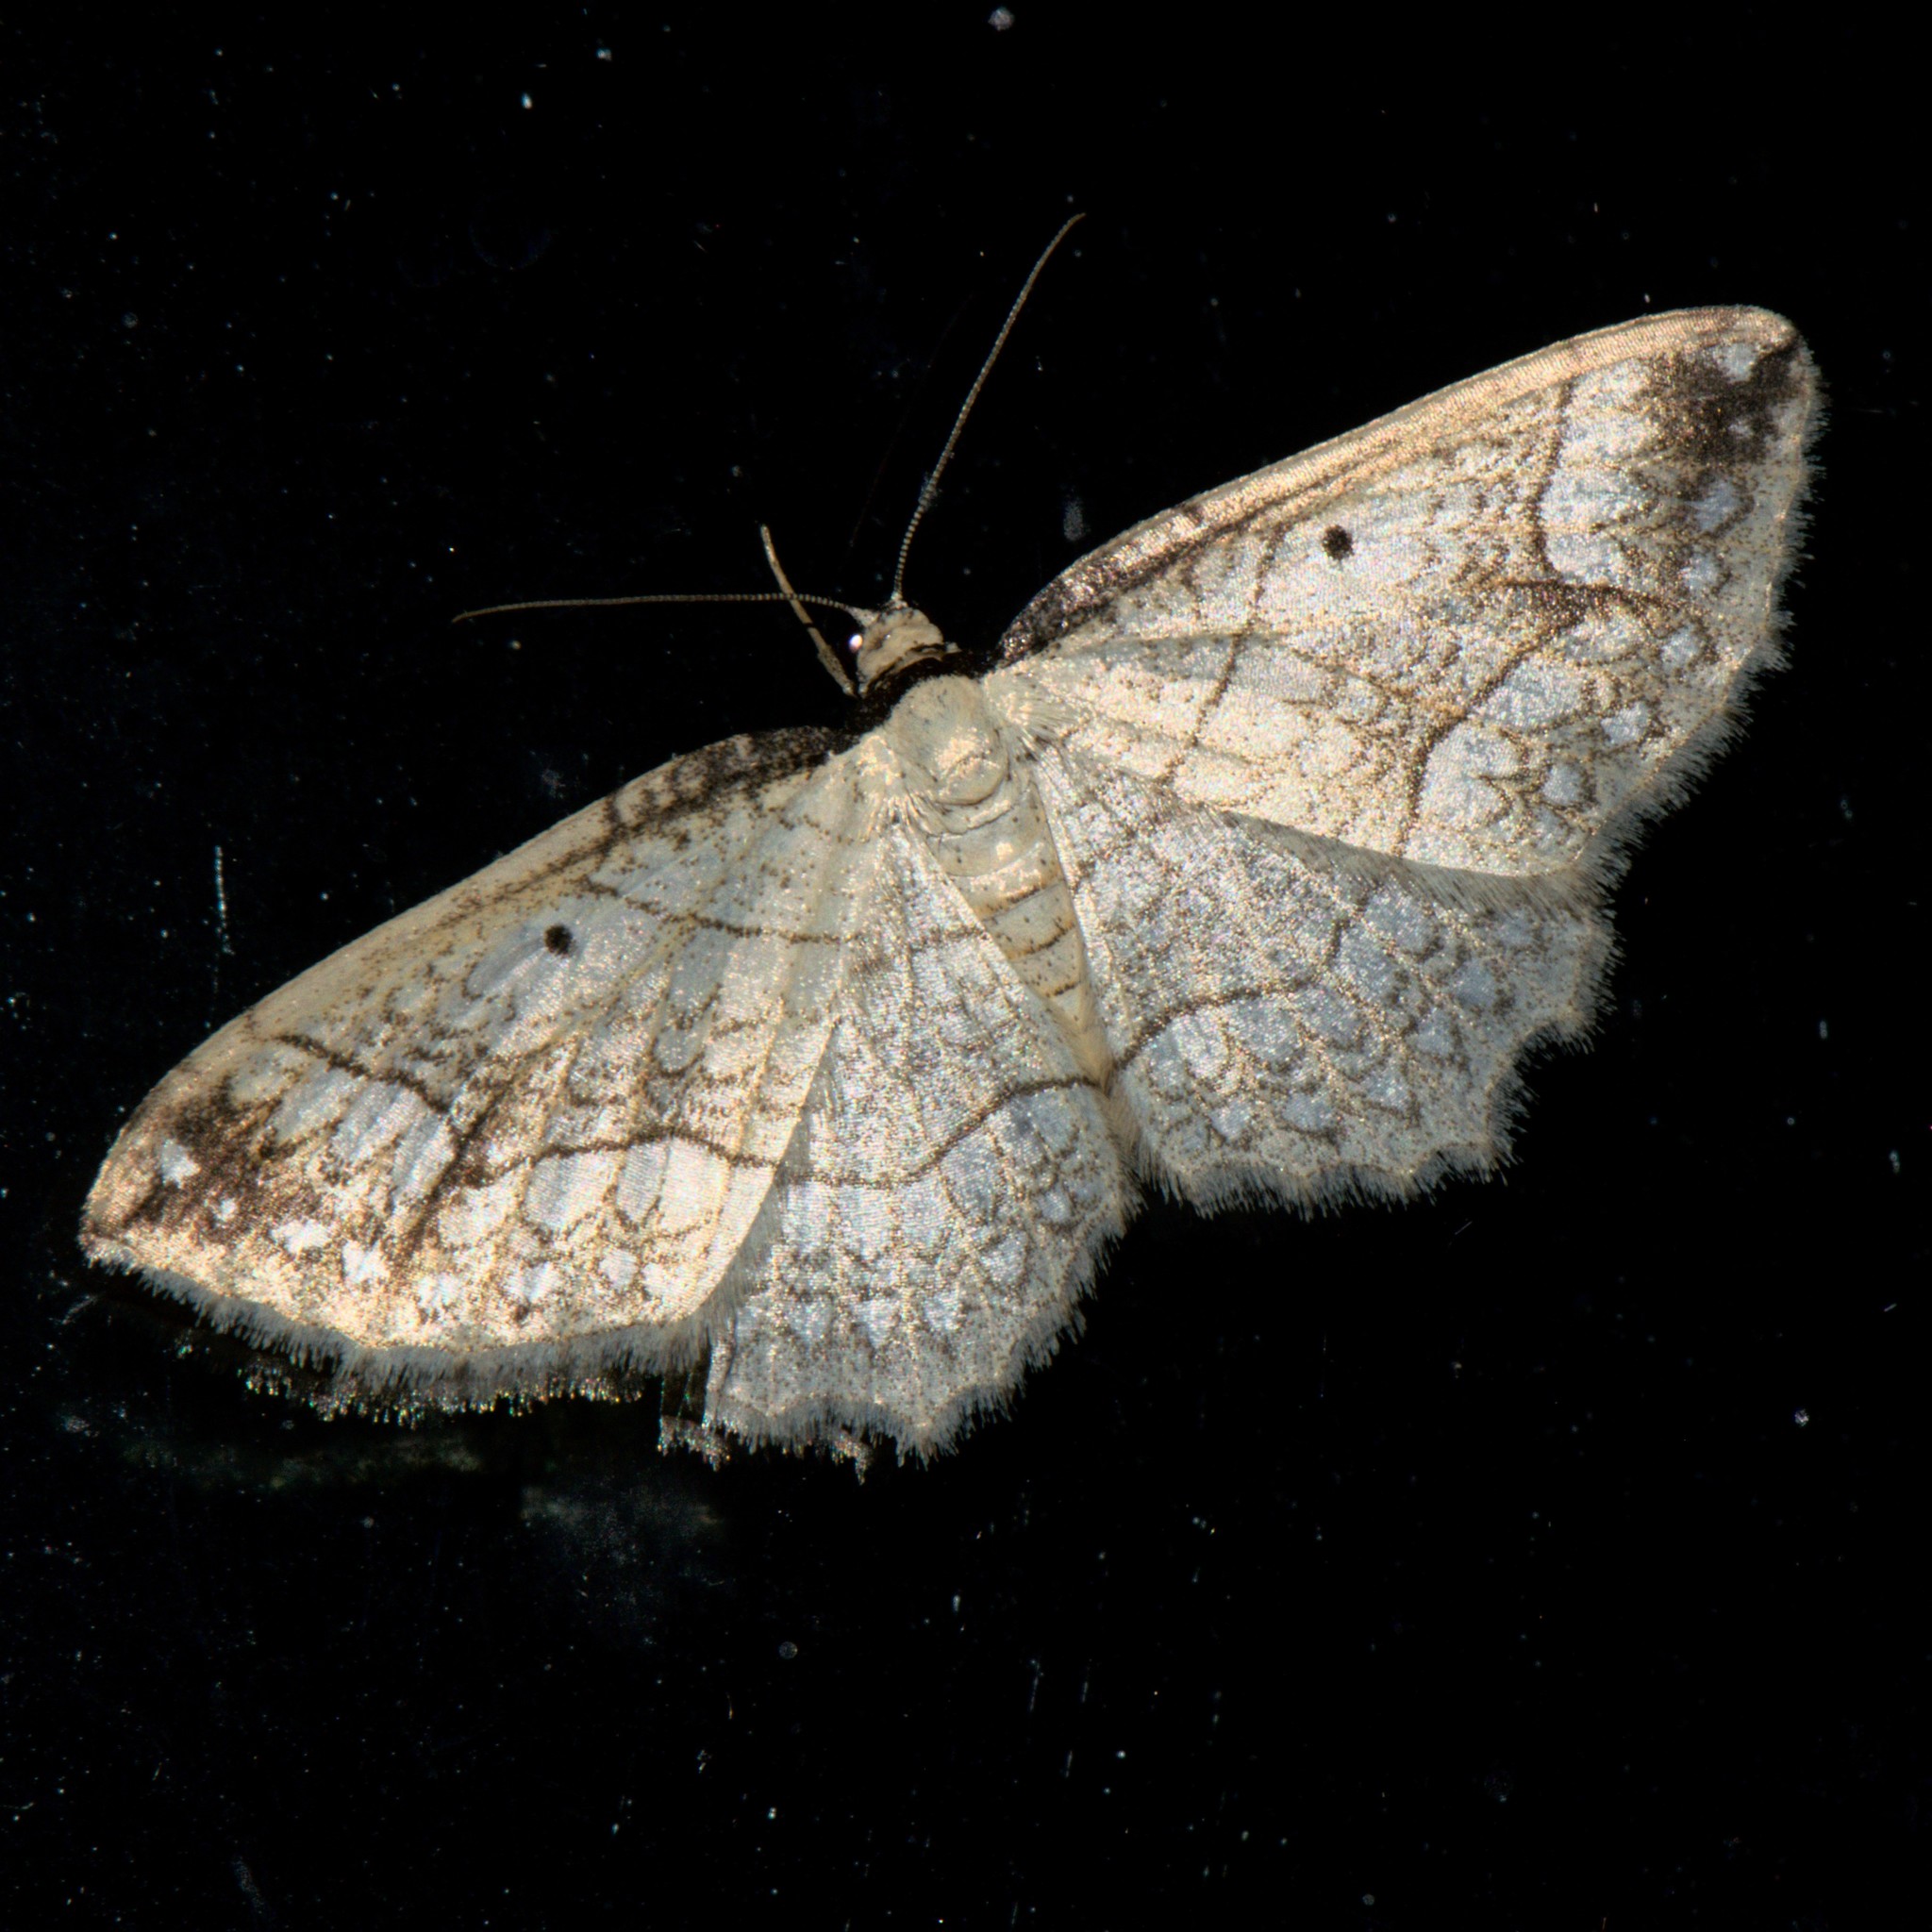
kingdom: Animalia
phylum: Arthropoda
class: Insecta
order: Lepidoptera
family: Geometridae
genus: Laciniodes
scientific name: Laciniodes plurilinearia
